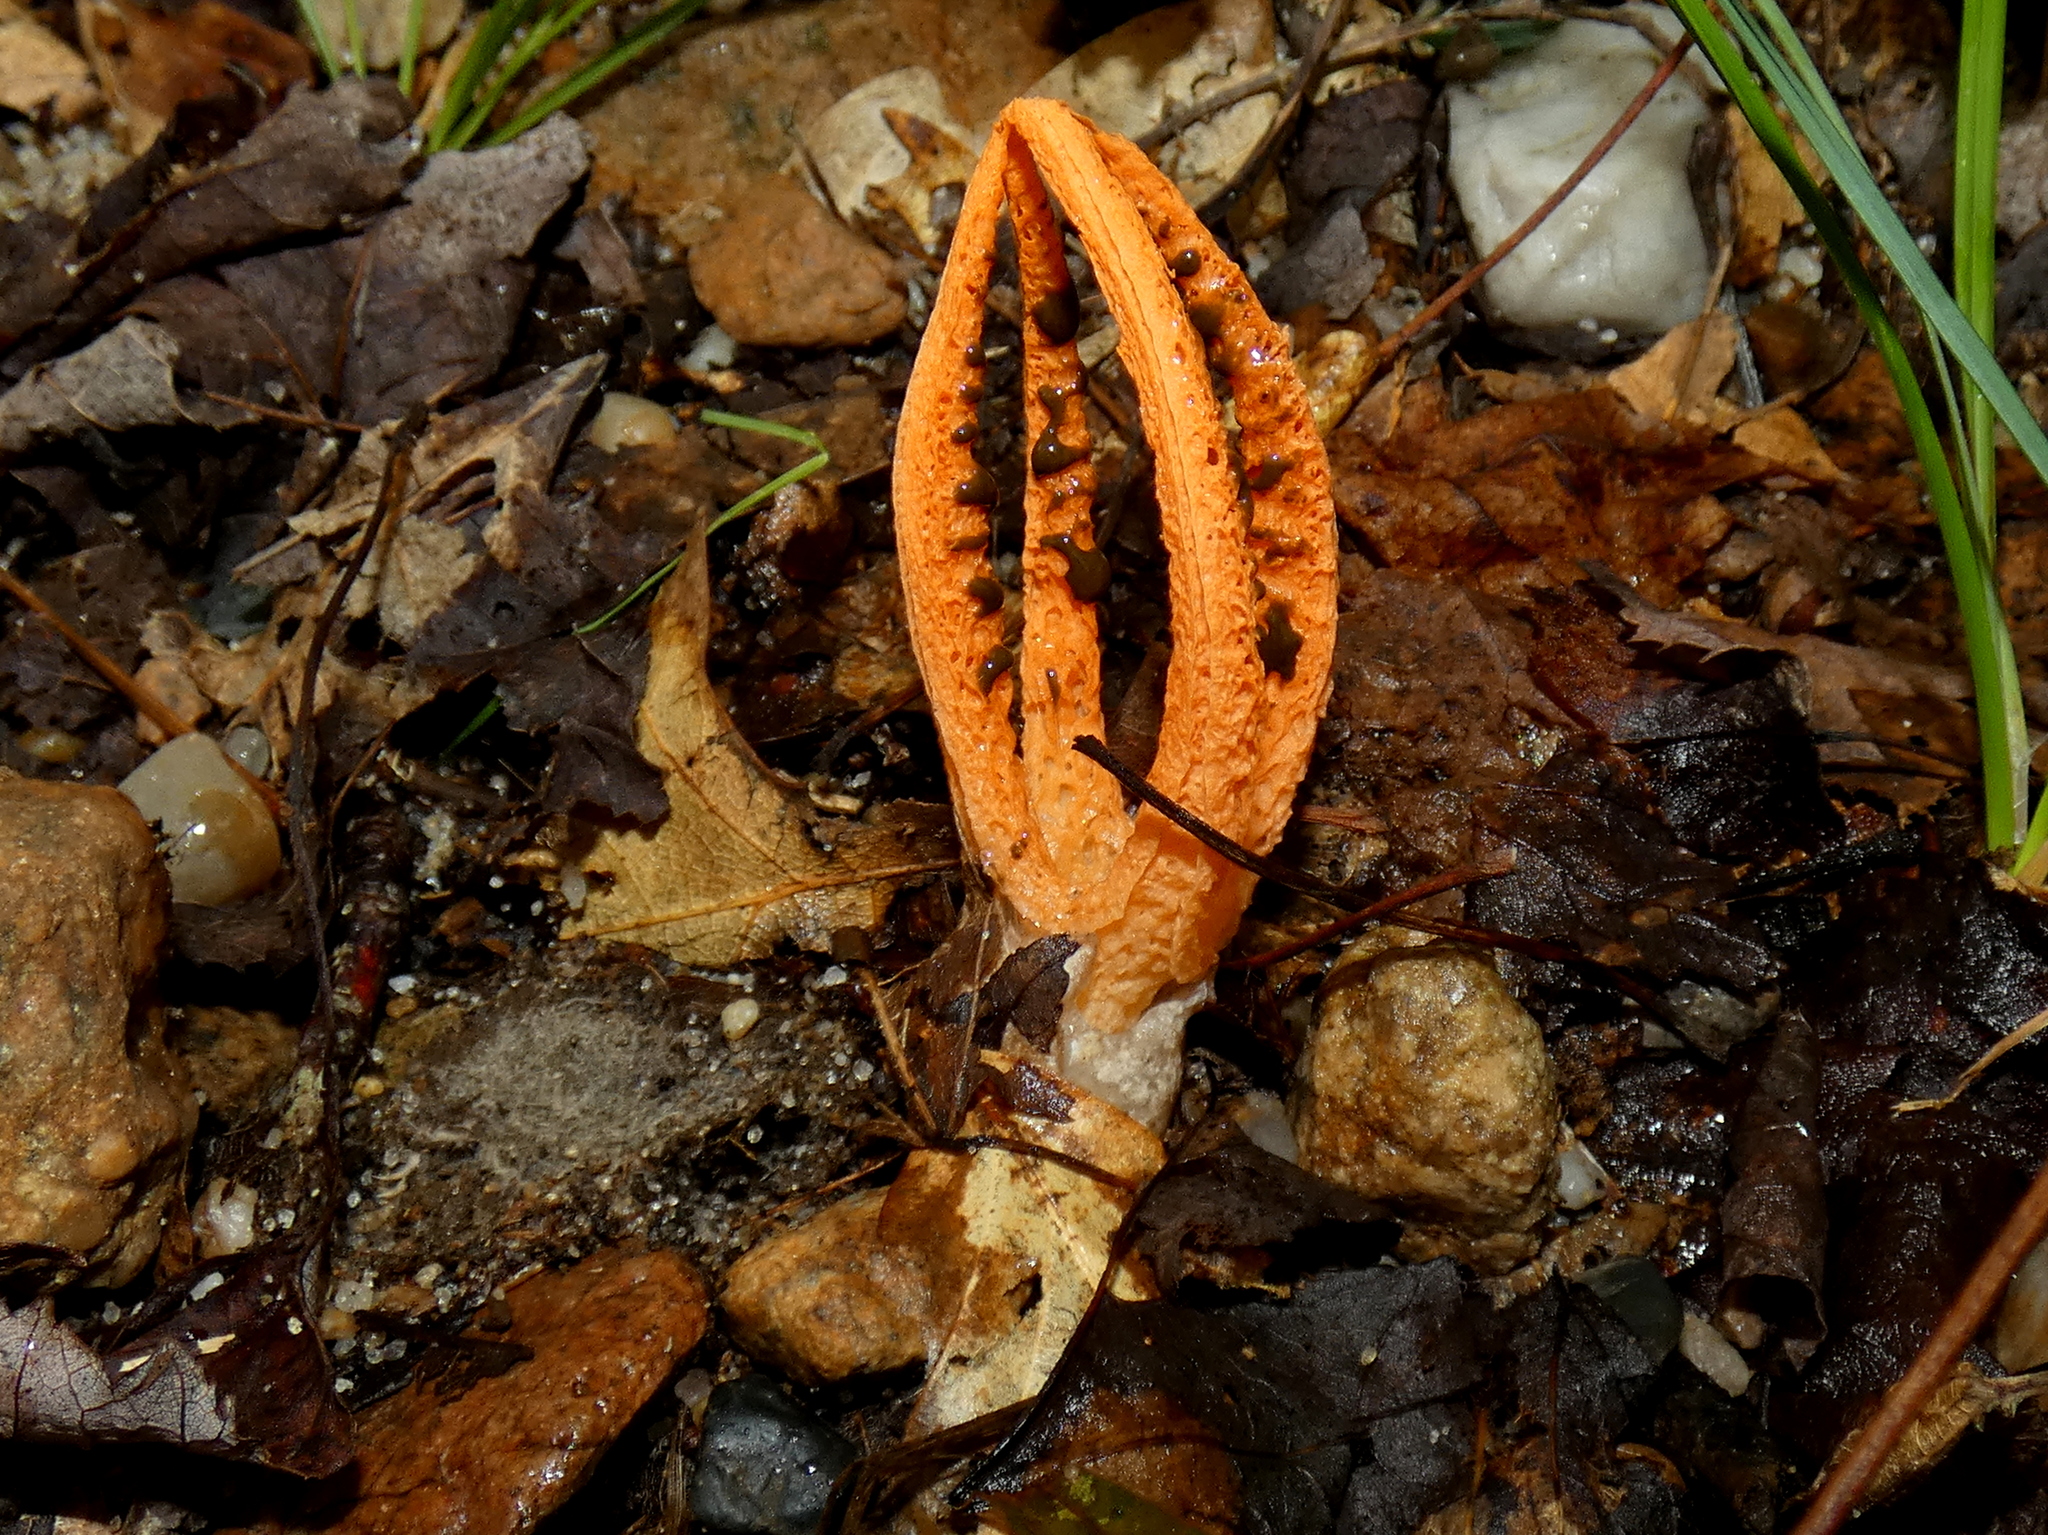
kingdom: Fungi
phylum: Basidiomycota
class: Agaricomycetes
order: Phallales
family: Phallaceae
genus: Pseudocolus
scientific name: Pseudocolus fusiformis
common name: Stinky squid
